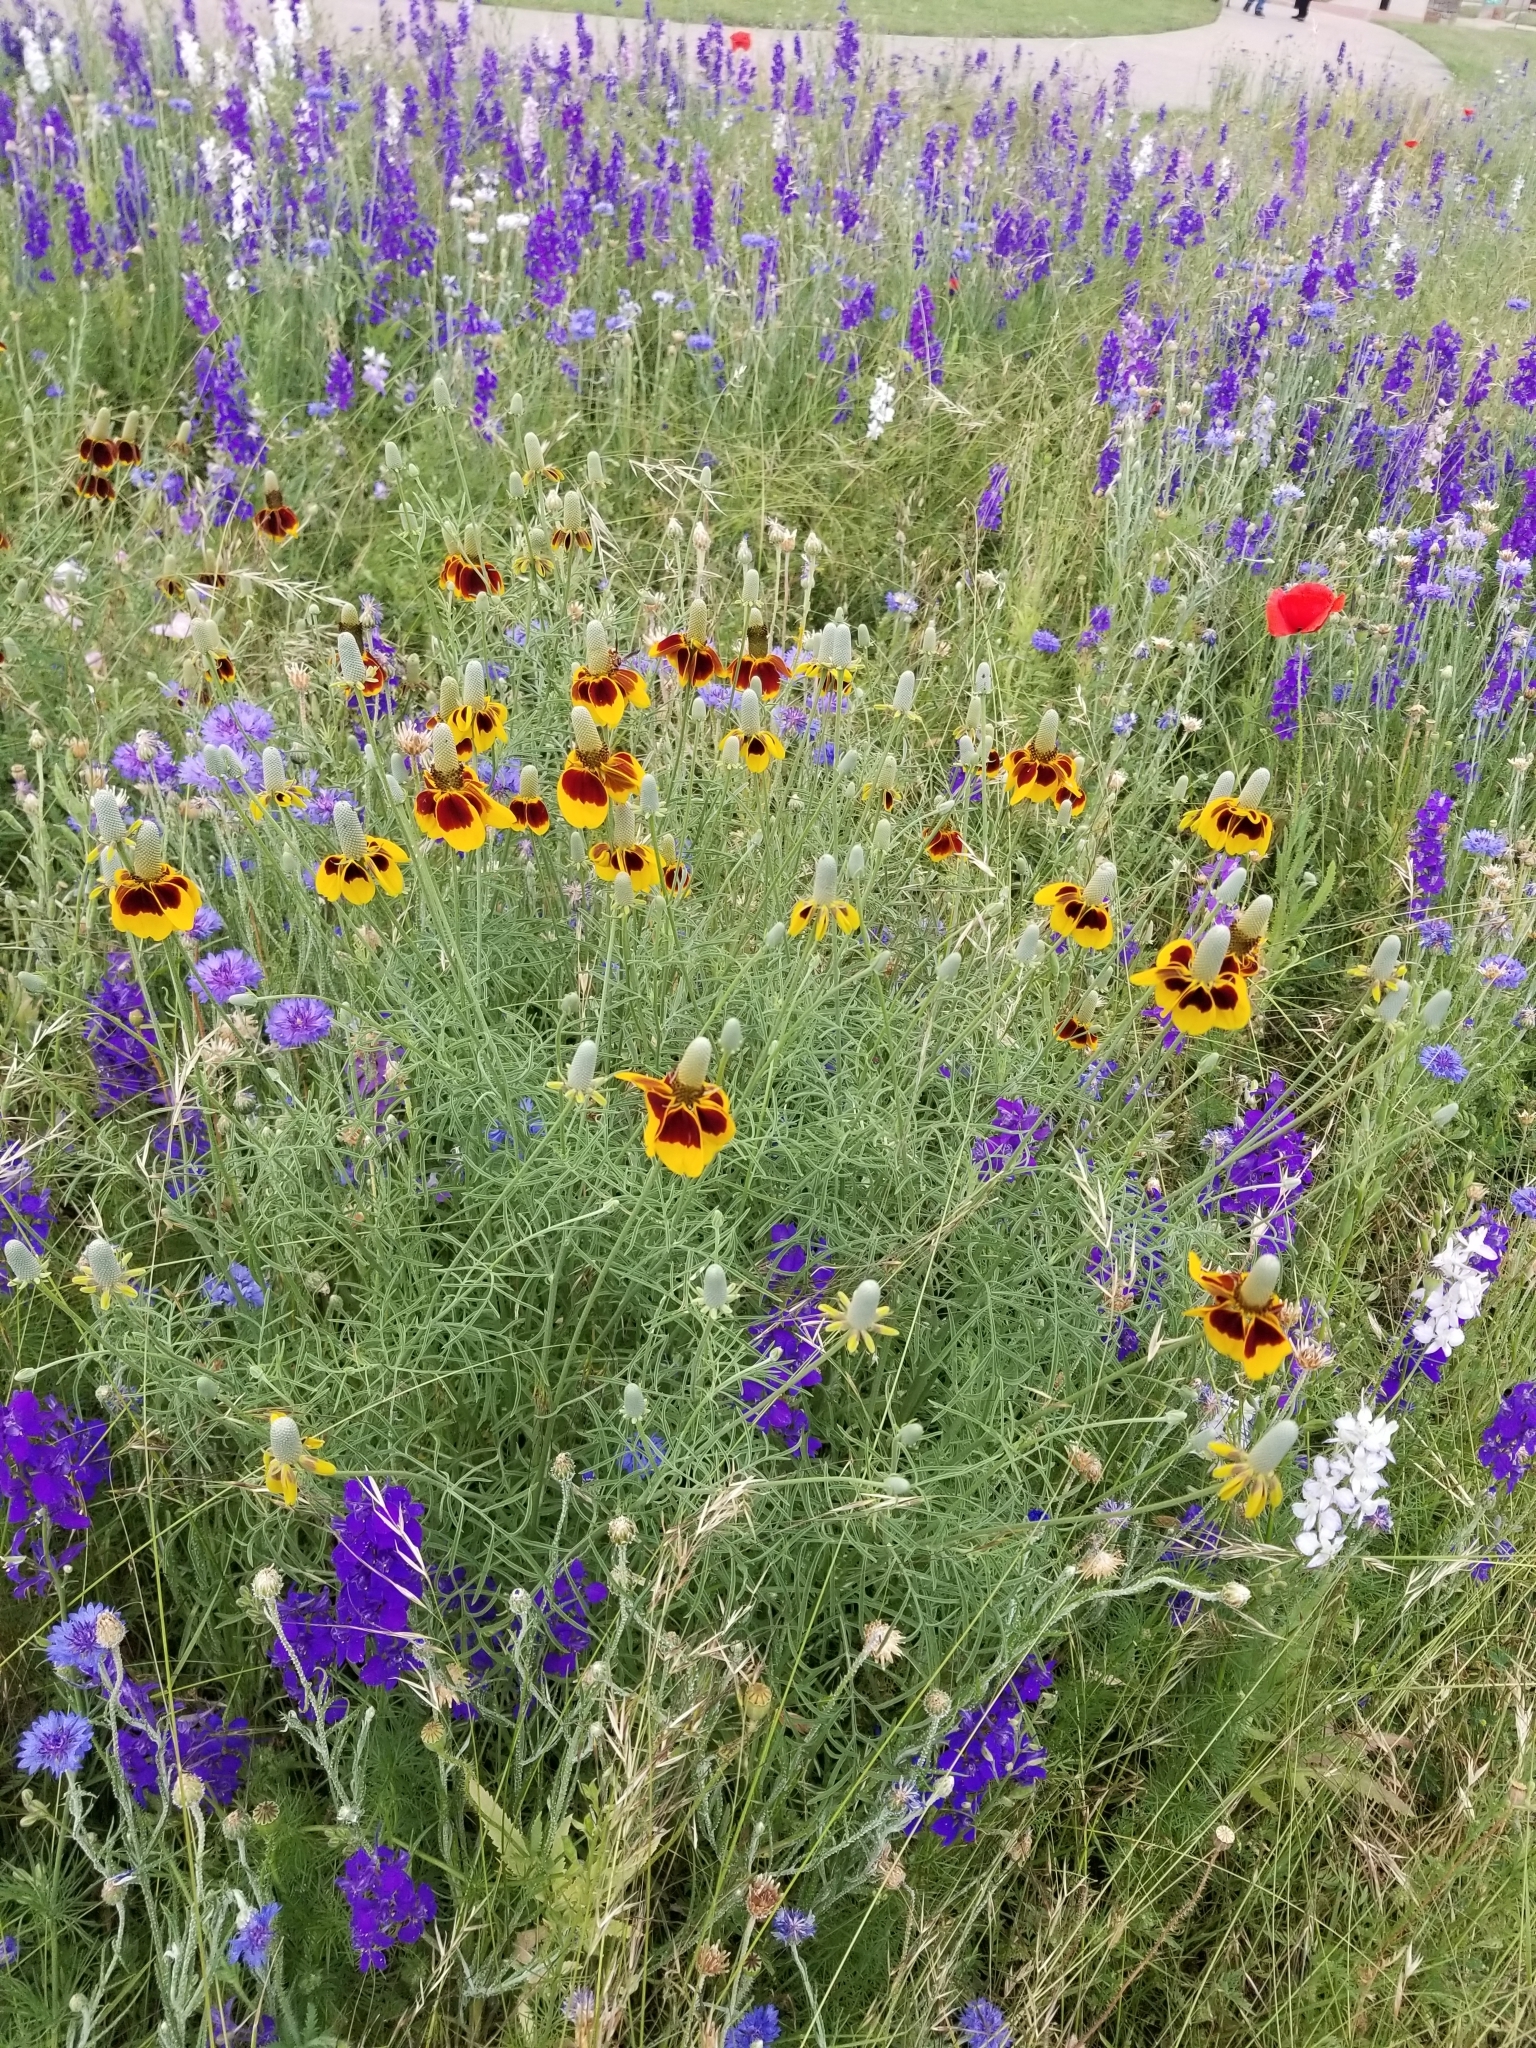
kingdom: Plantae
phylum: Tracheophyta
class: Magnoliopsida
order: Asterales
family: Asteraceae
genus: Ratibida
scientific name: Ratibida columnifera
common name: Prairie coneflower
